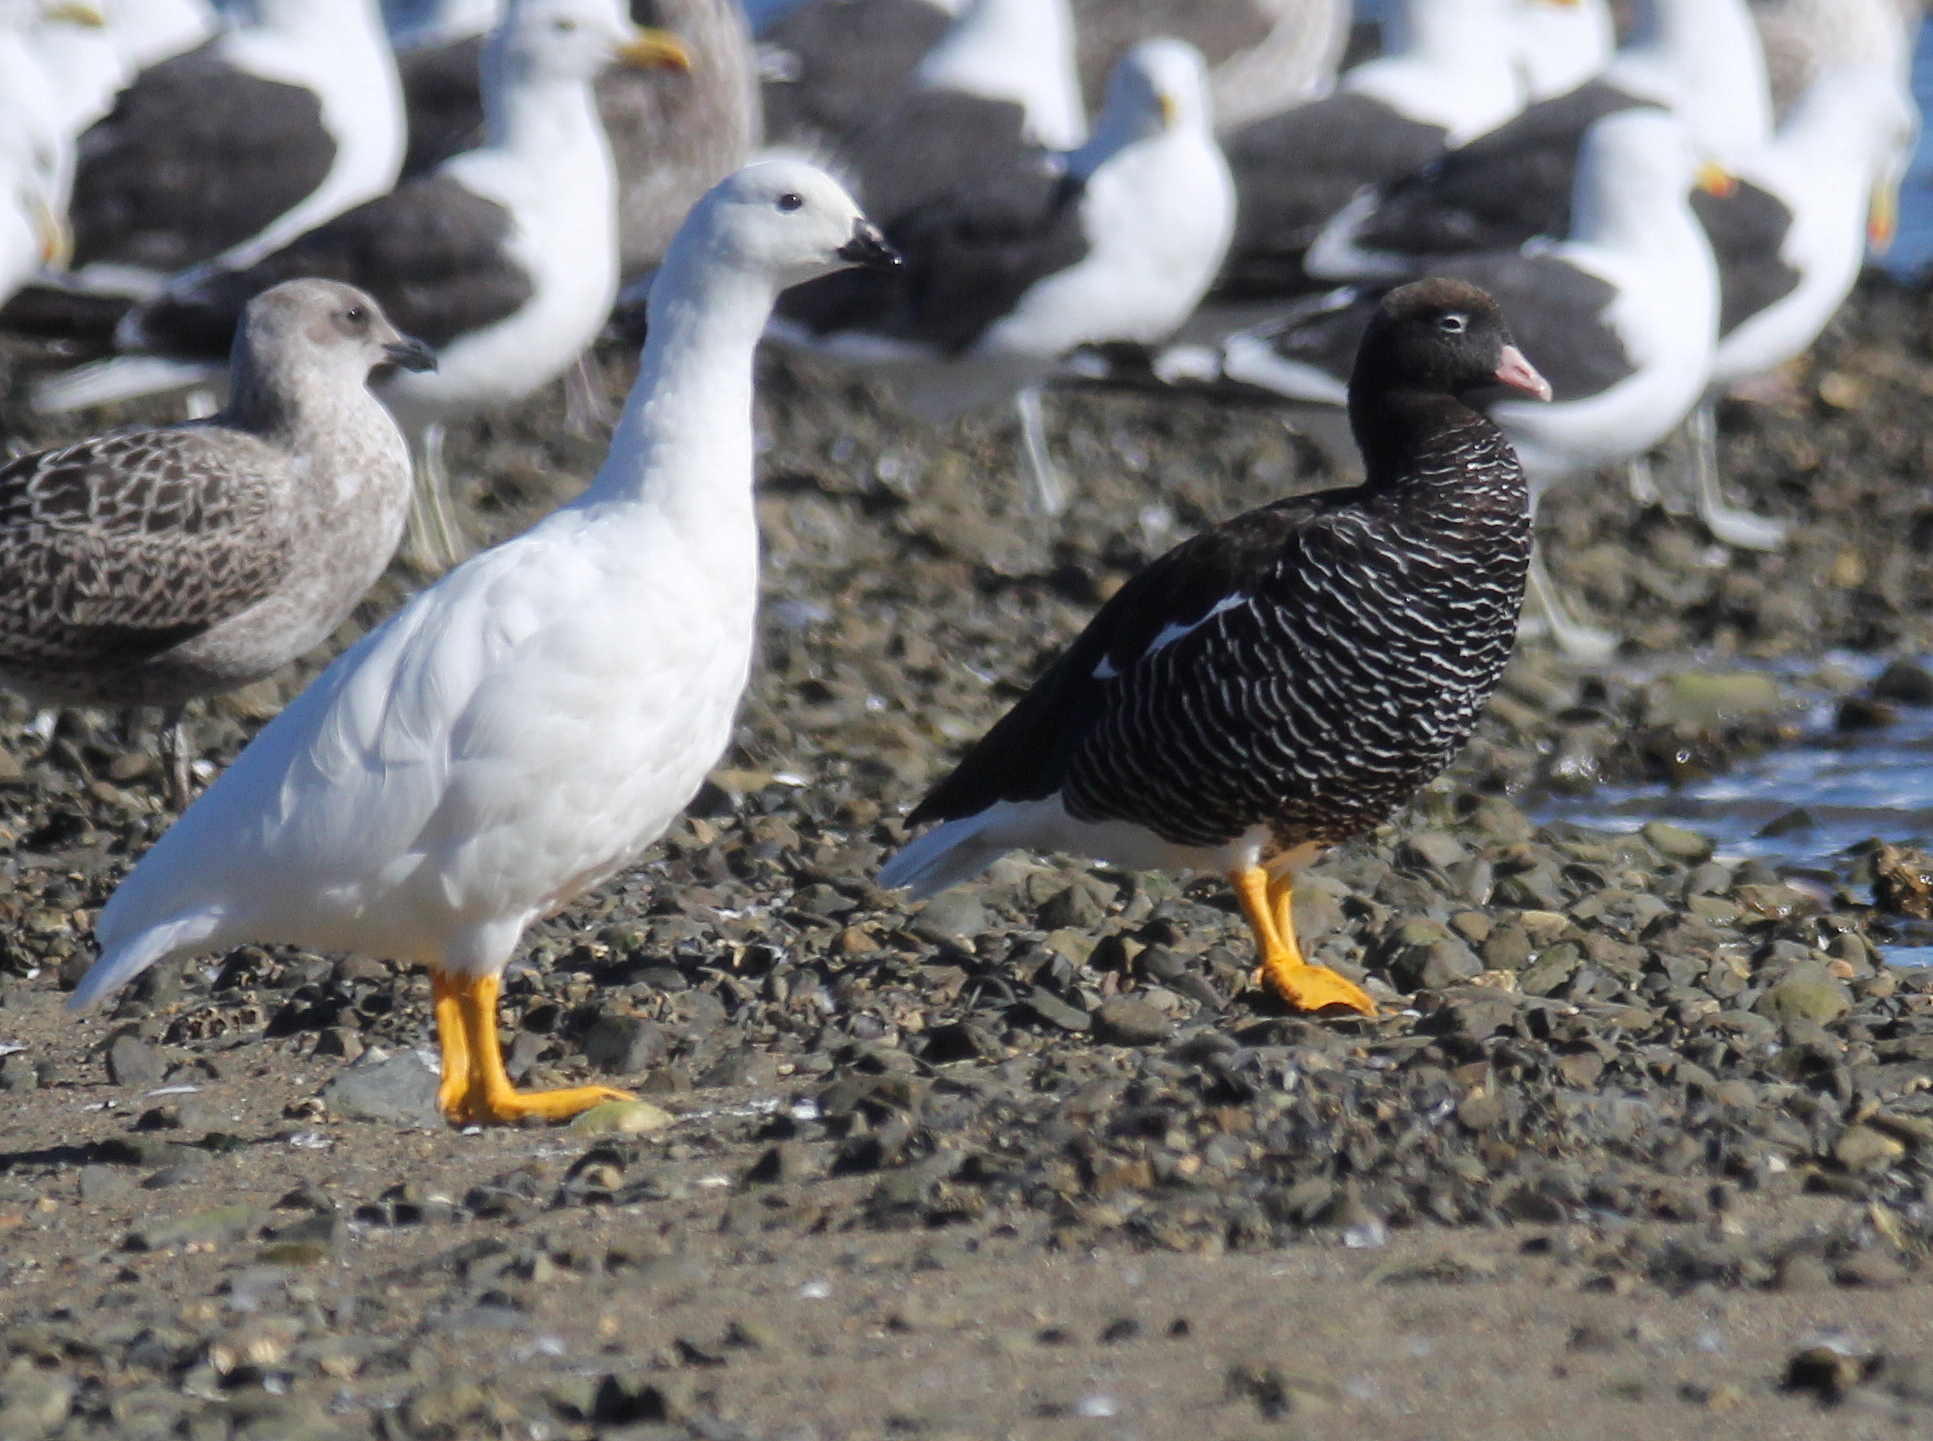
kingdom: Animalia
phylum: Chordata
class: Aves
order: Anseriformes
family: Anatidae
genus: Chloephaga
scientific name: Chloephaga hybrida
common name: Kelp goose
